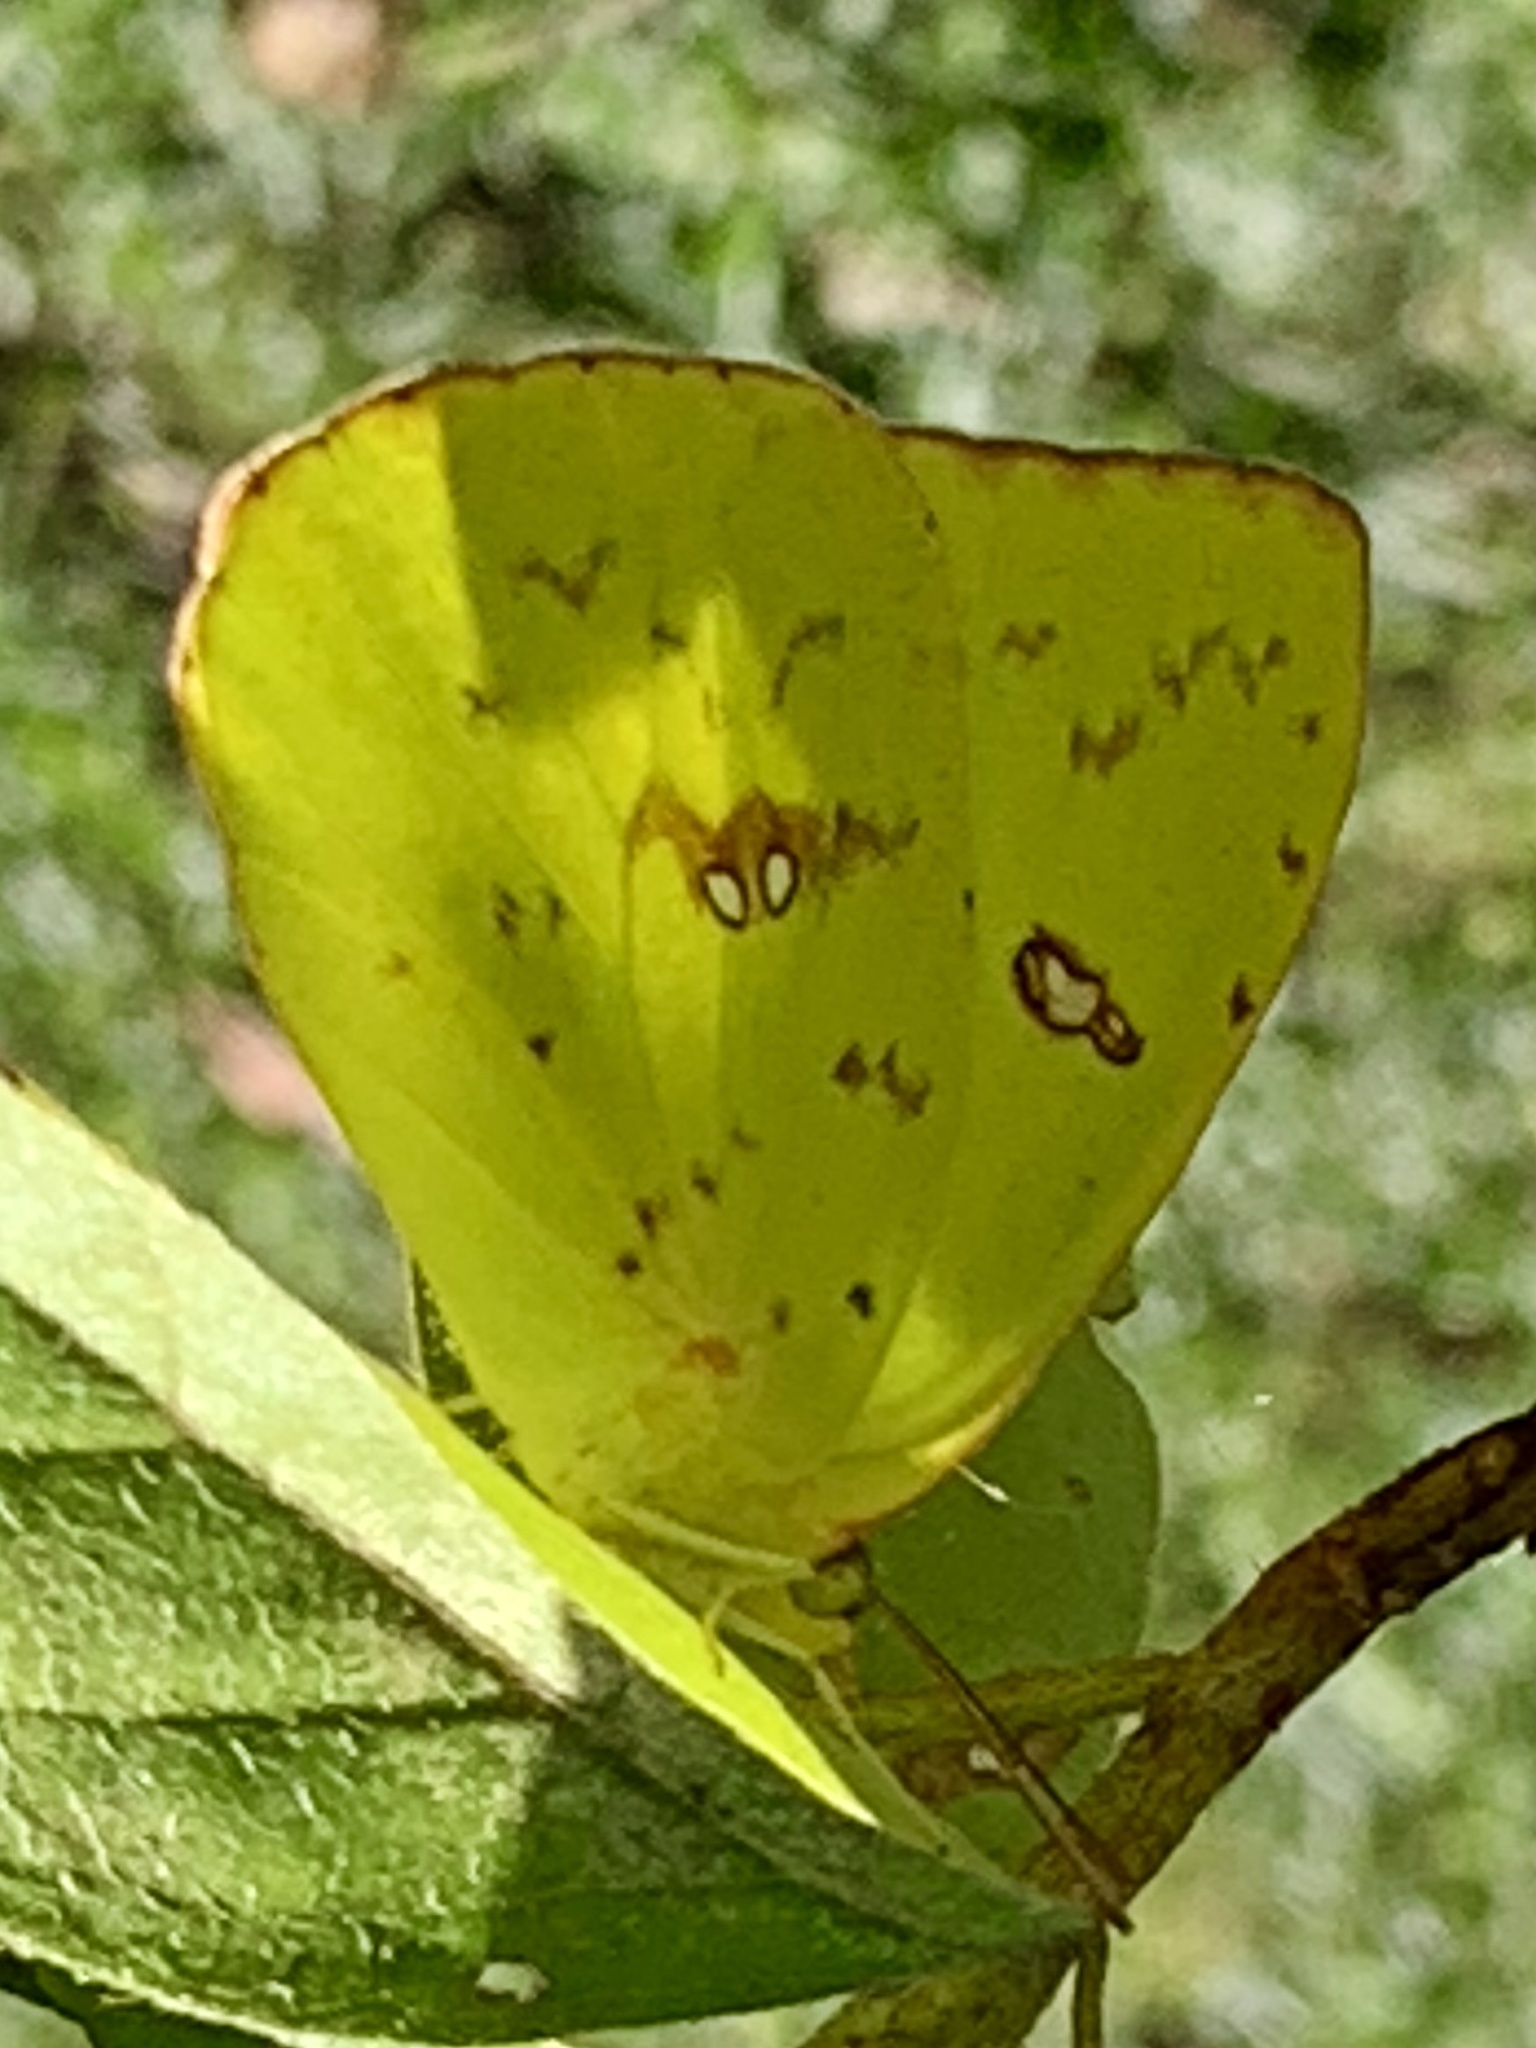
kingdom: Animalia
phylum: Arthropoda
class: Insecta
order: Lepidoptera
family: Pieridae
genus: Phoebis
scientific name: Phoebis sennae
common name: Cloudless sulphur
